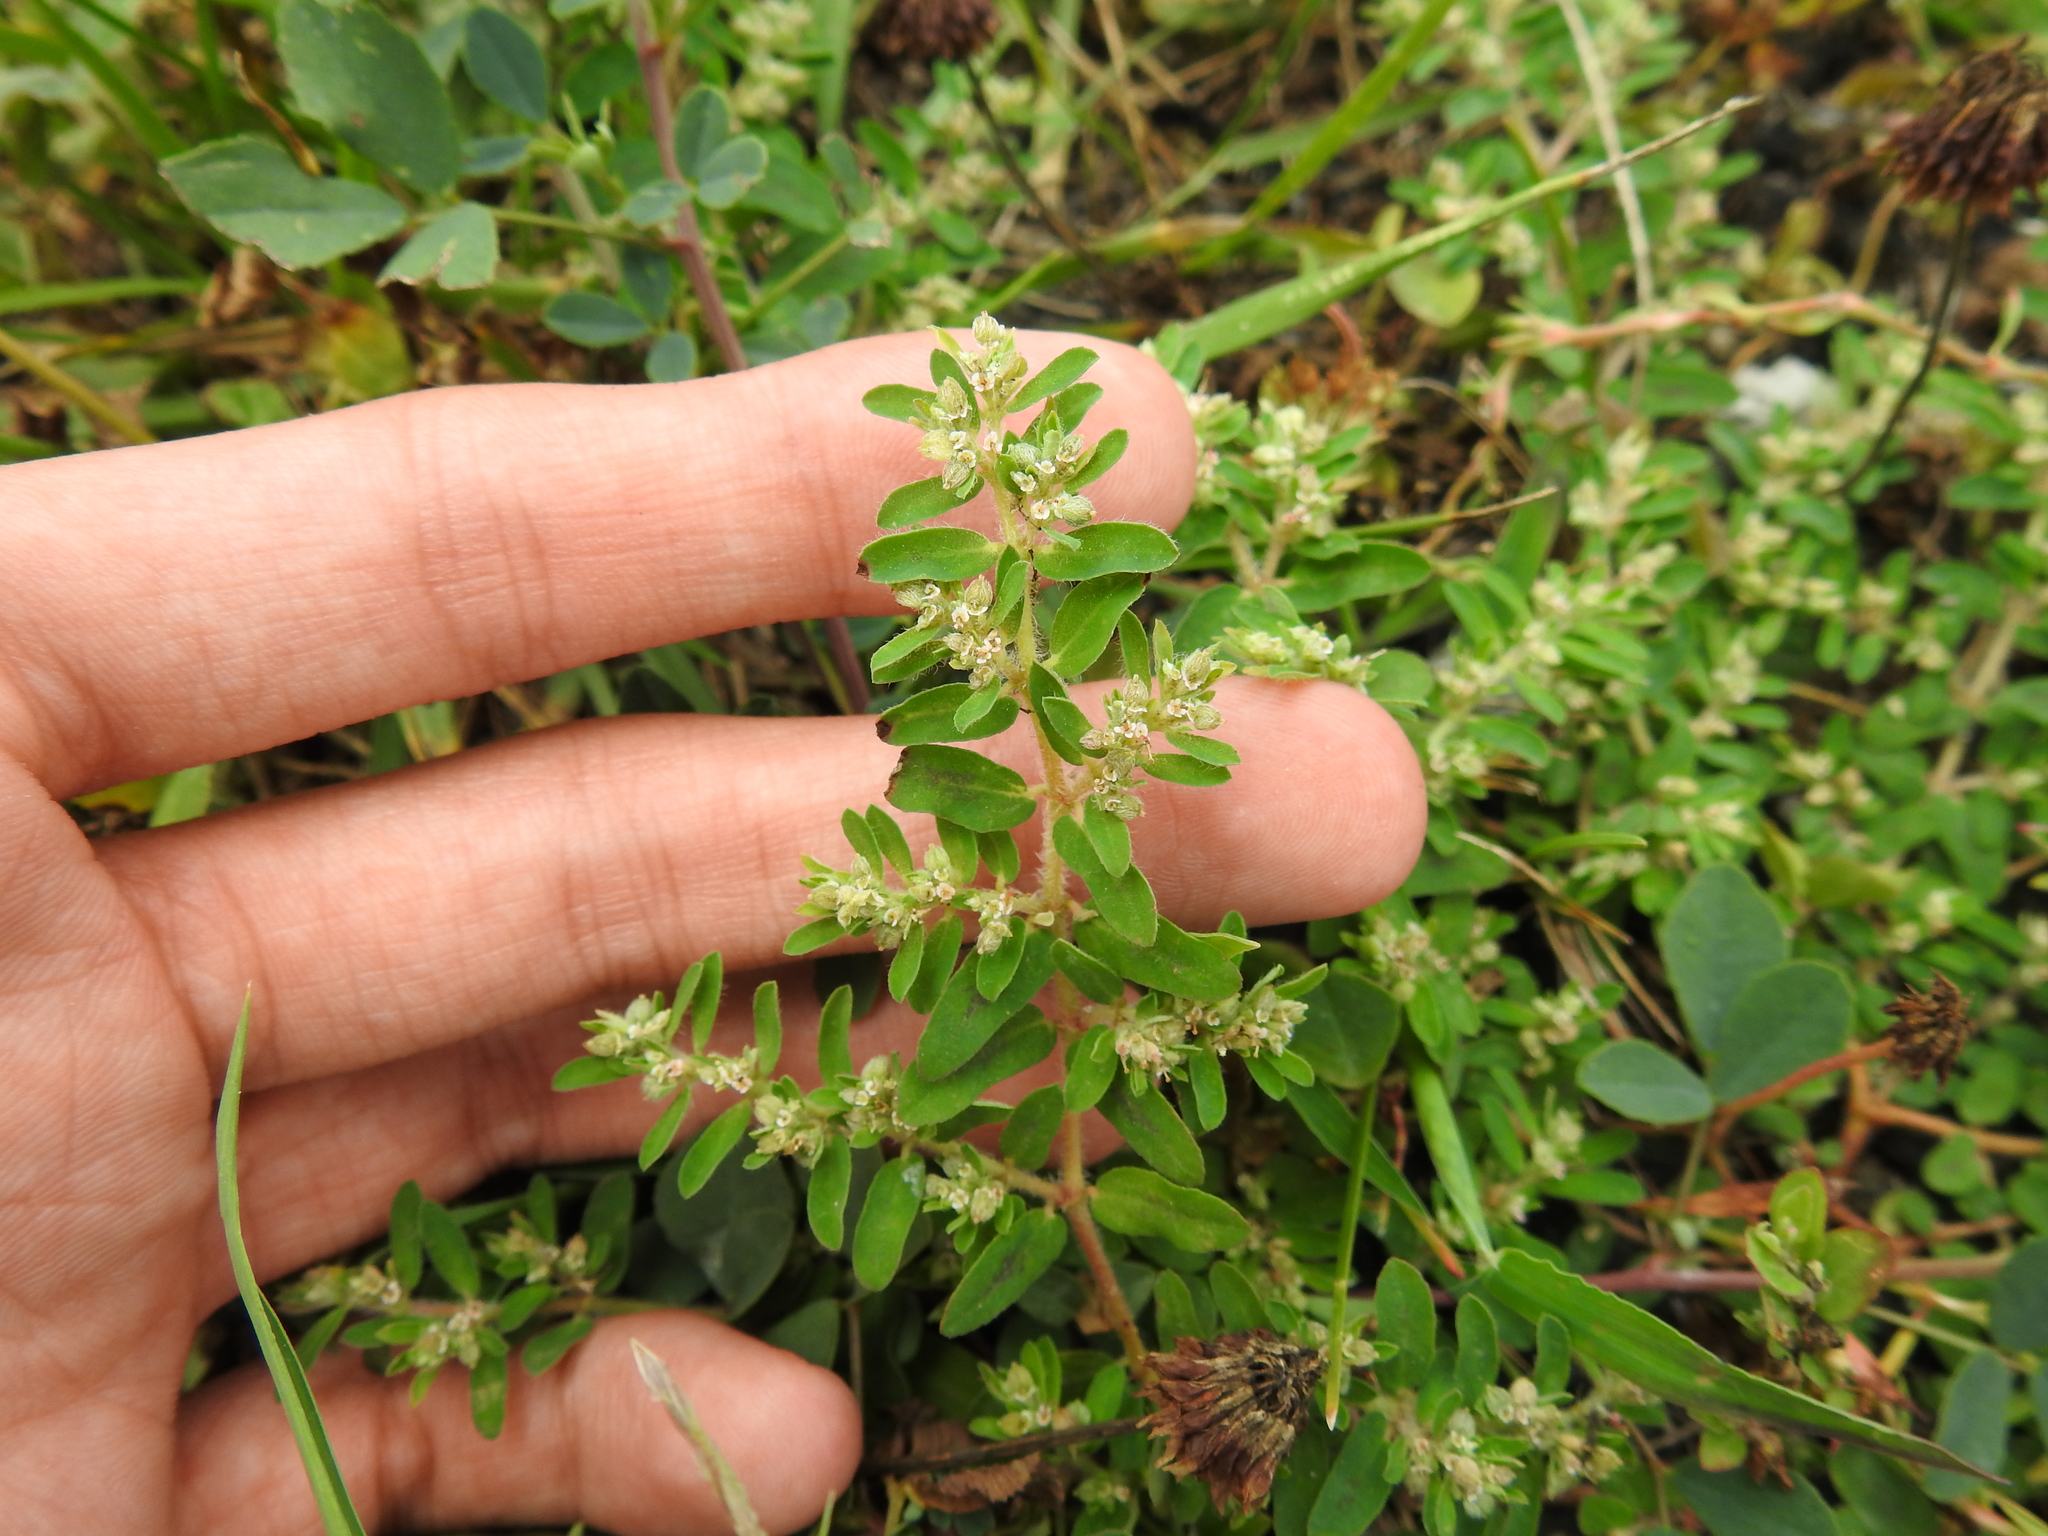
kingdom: Plantae
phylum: Tracheophyta
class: Magnoliopsida
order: Malpighiales
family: Euphorbiaceae
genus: Euphorbia
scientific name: Euphorbia maculata
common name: Spotted spurge
